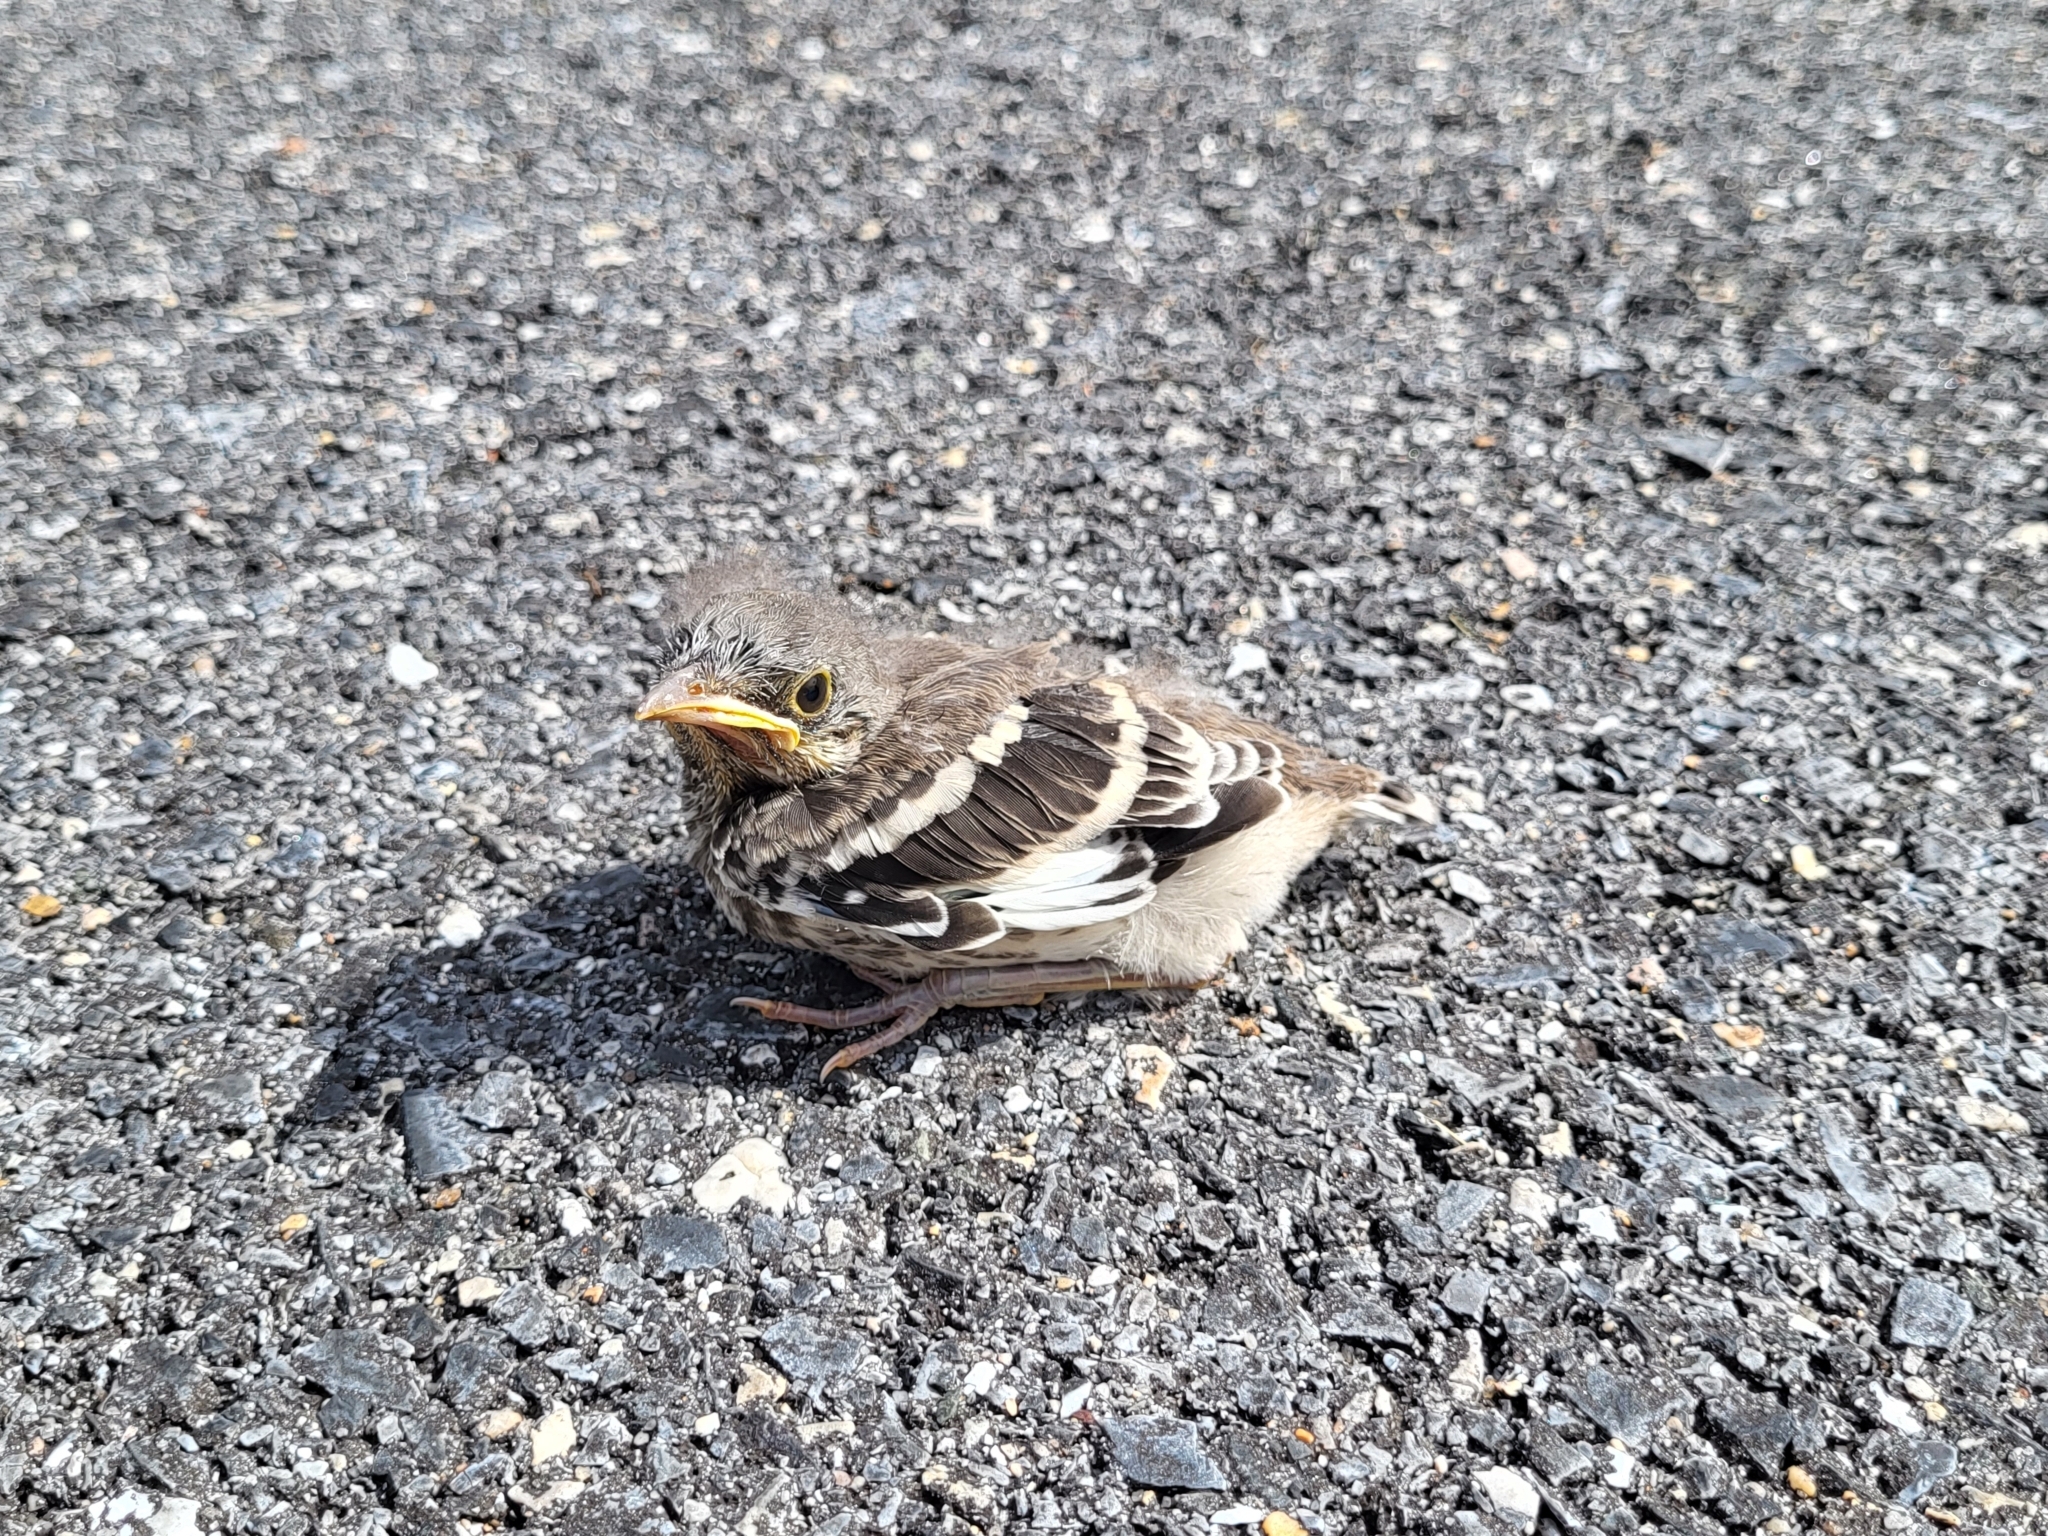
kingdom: Animalia
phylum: Chordata
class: Aves
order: Passeriformes
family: Mimidae
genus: Mimus
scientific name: Mimus polyglottos
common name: Northern mockingbird
